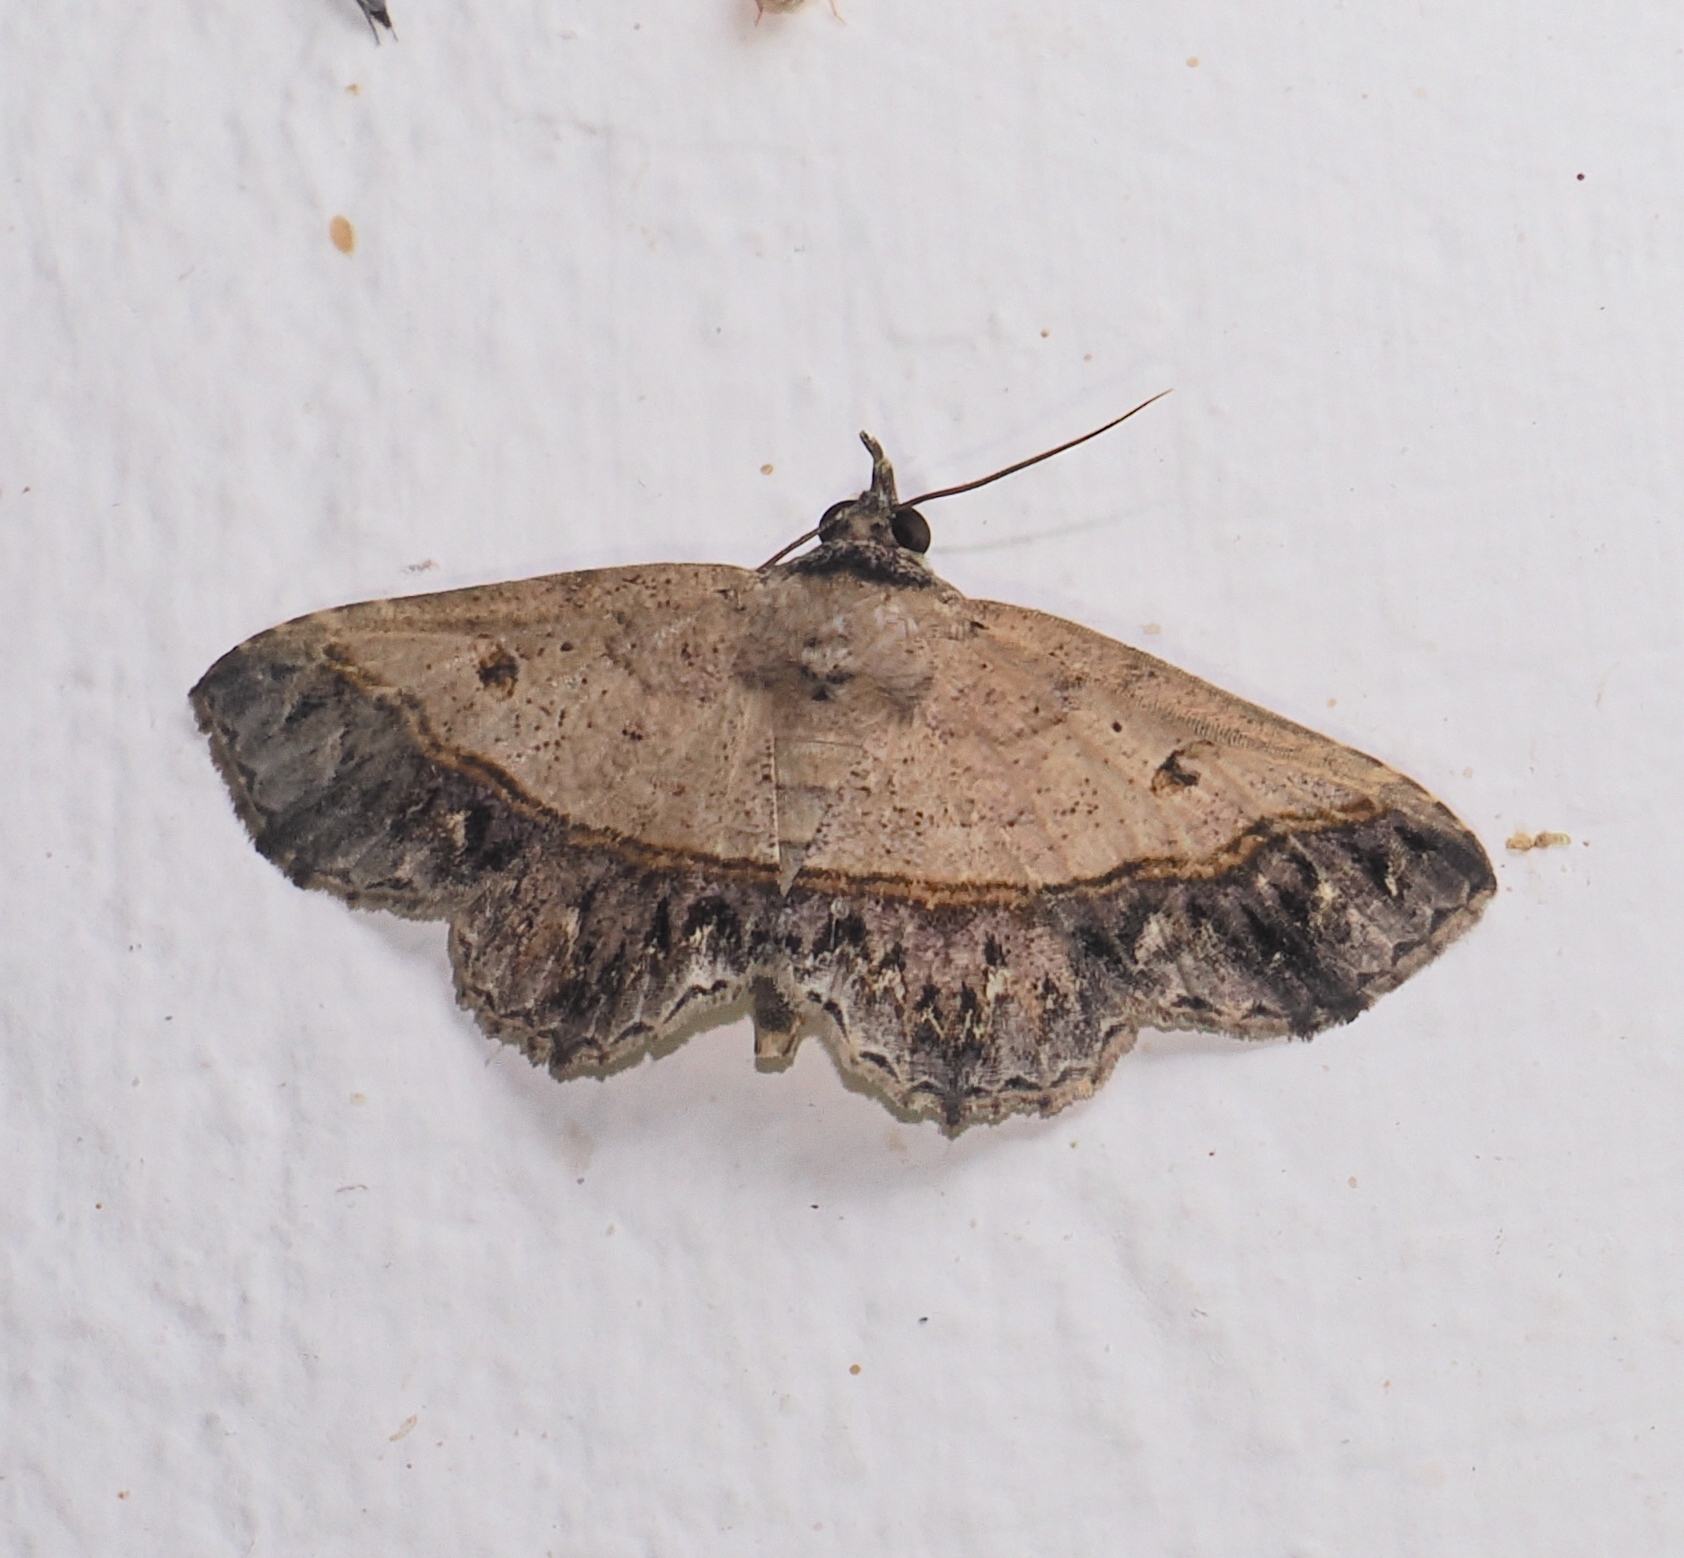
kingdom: Animalia
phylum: Arthropoda
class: Insecta
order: Lepidoptera
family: Erebidae
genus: Antiblemma
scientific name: Antiblemma polyodon
